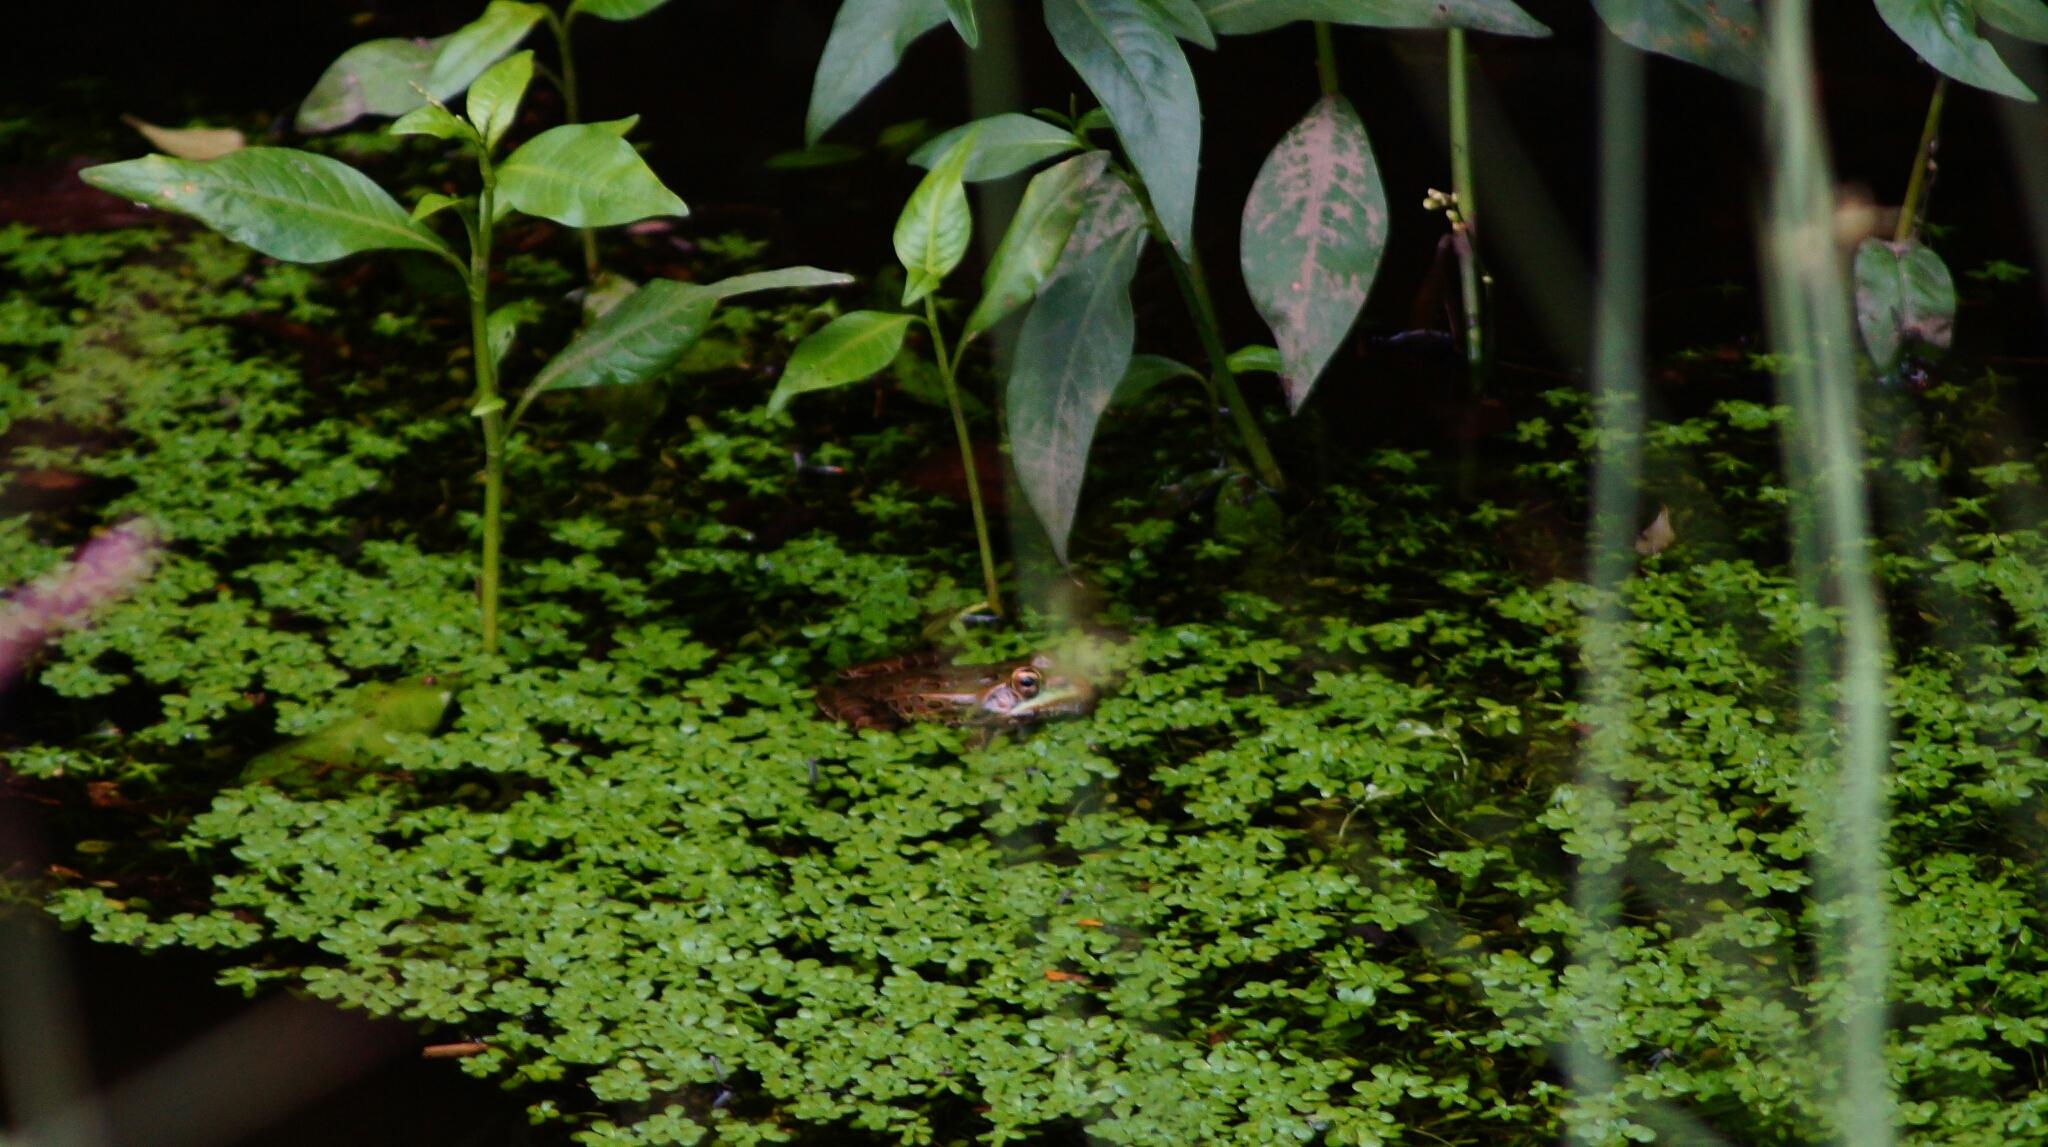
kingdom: Animalia
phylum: Chordata
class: Amphibia
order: Anura
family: Ranidae
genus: Lithobates
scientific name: Lithobates berlandieri
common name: Rio grande leopard frog
